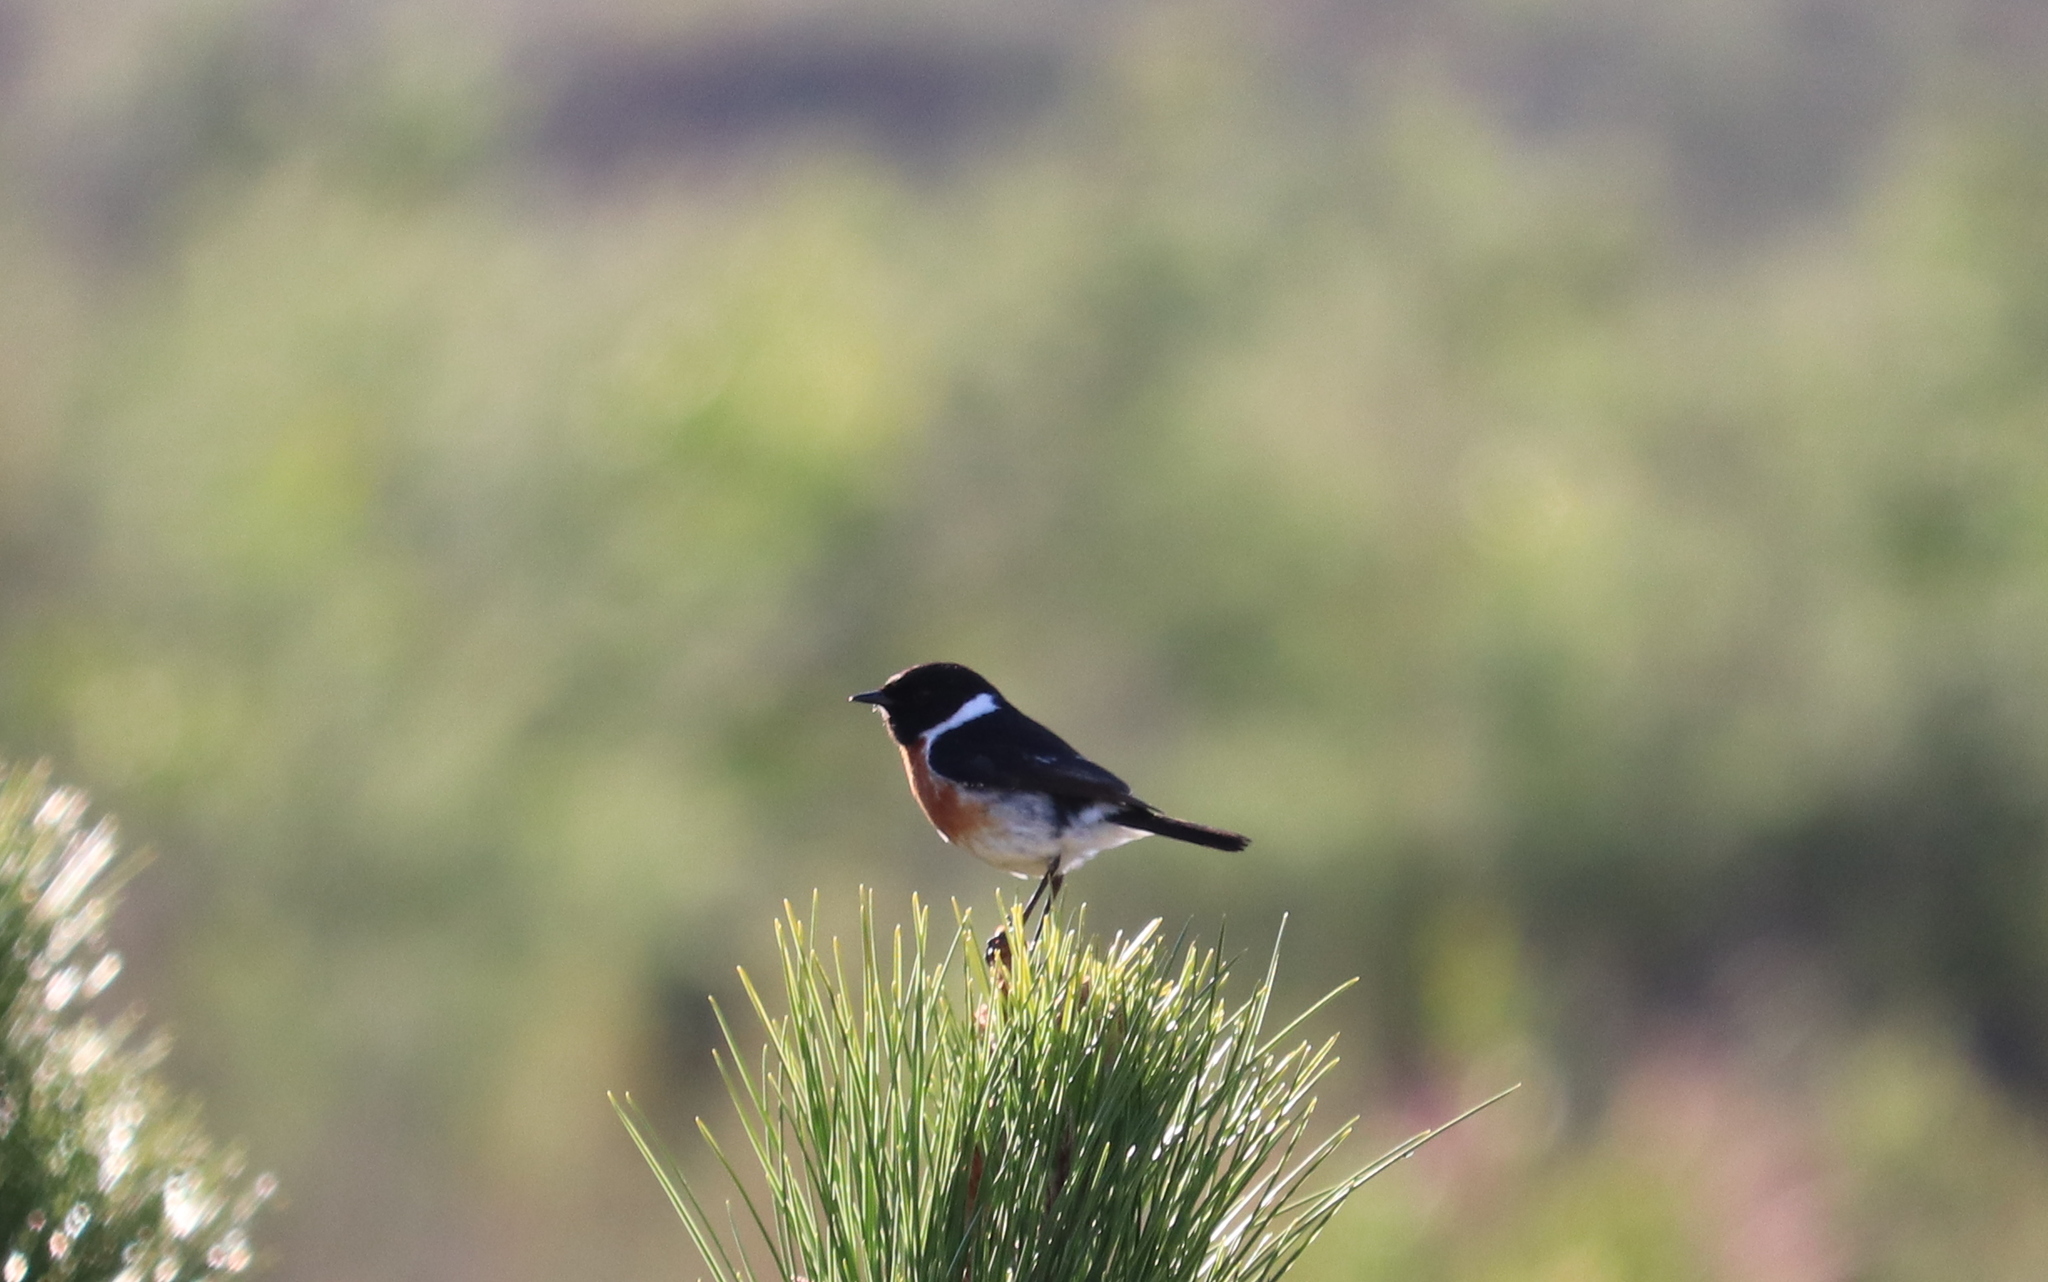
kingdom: Animalia
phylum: Chordata
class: Aves
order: Passeriformes
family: Muscicapidae
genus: Saxicola
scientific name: Saxicola torquatus
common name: African stonechat
